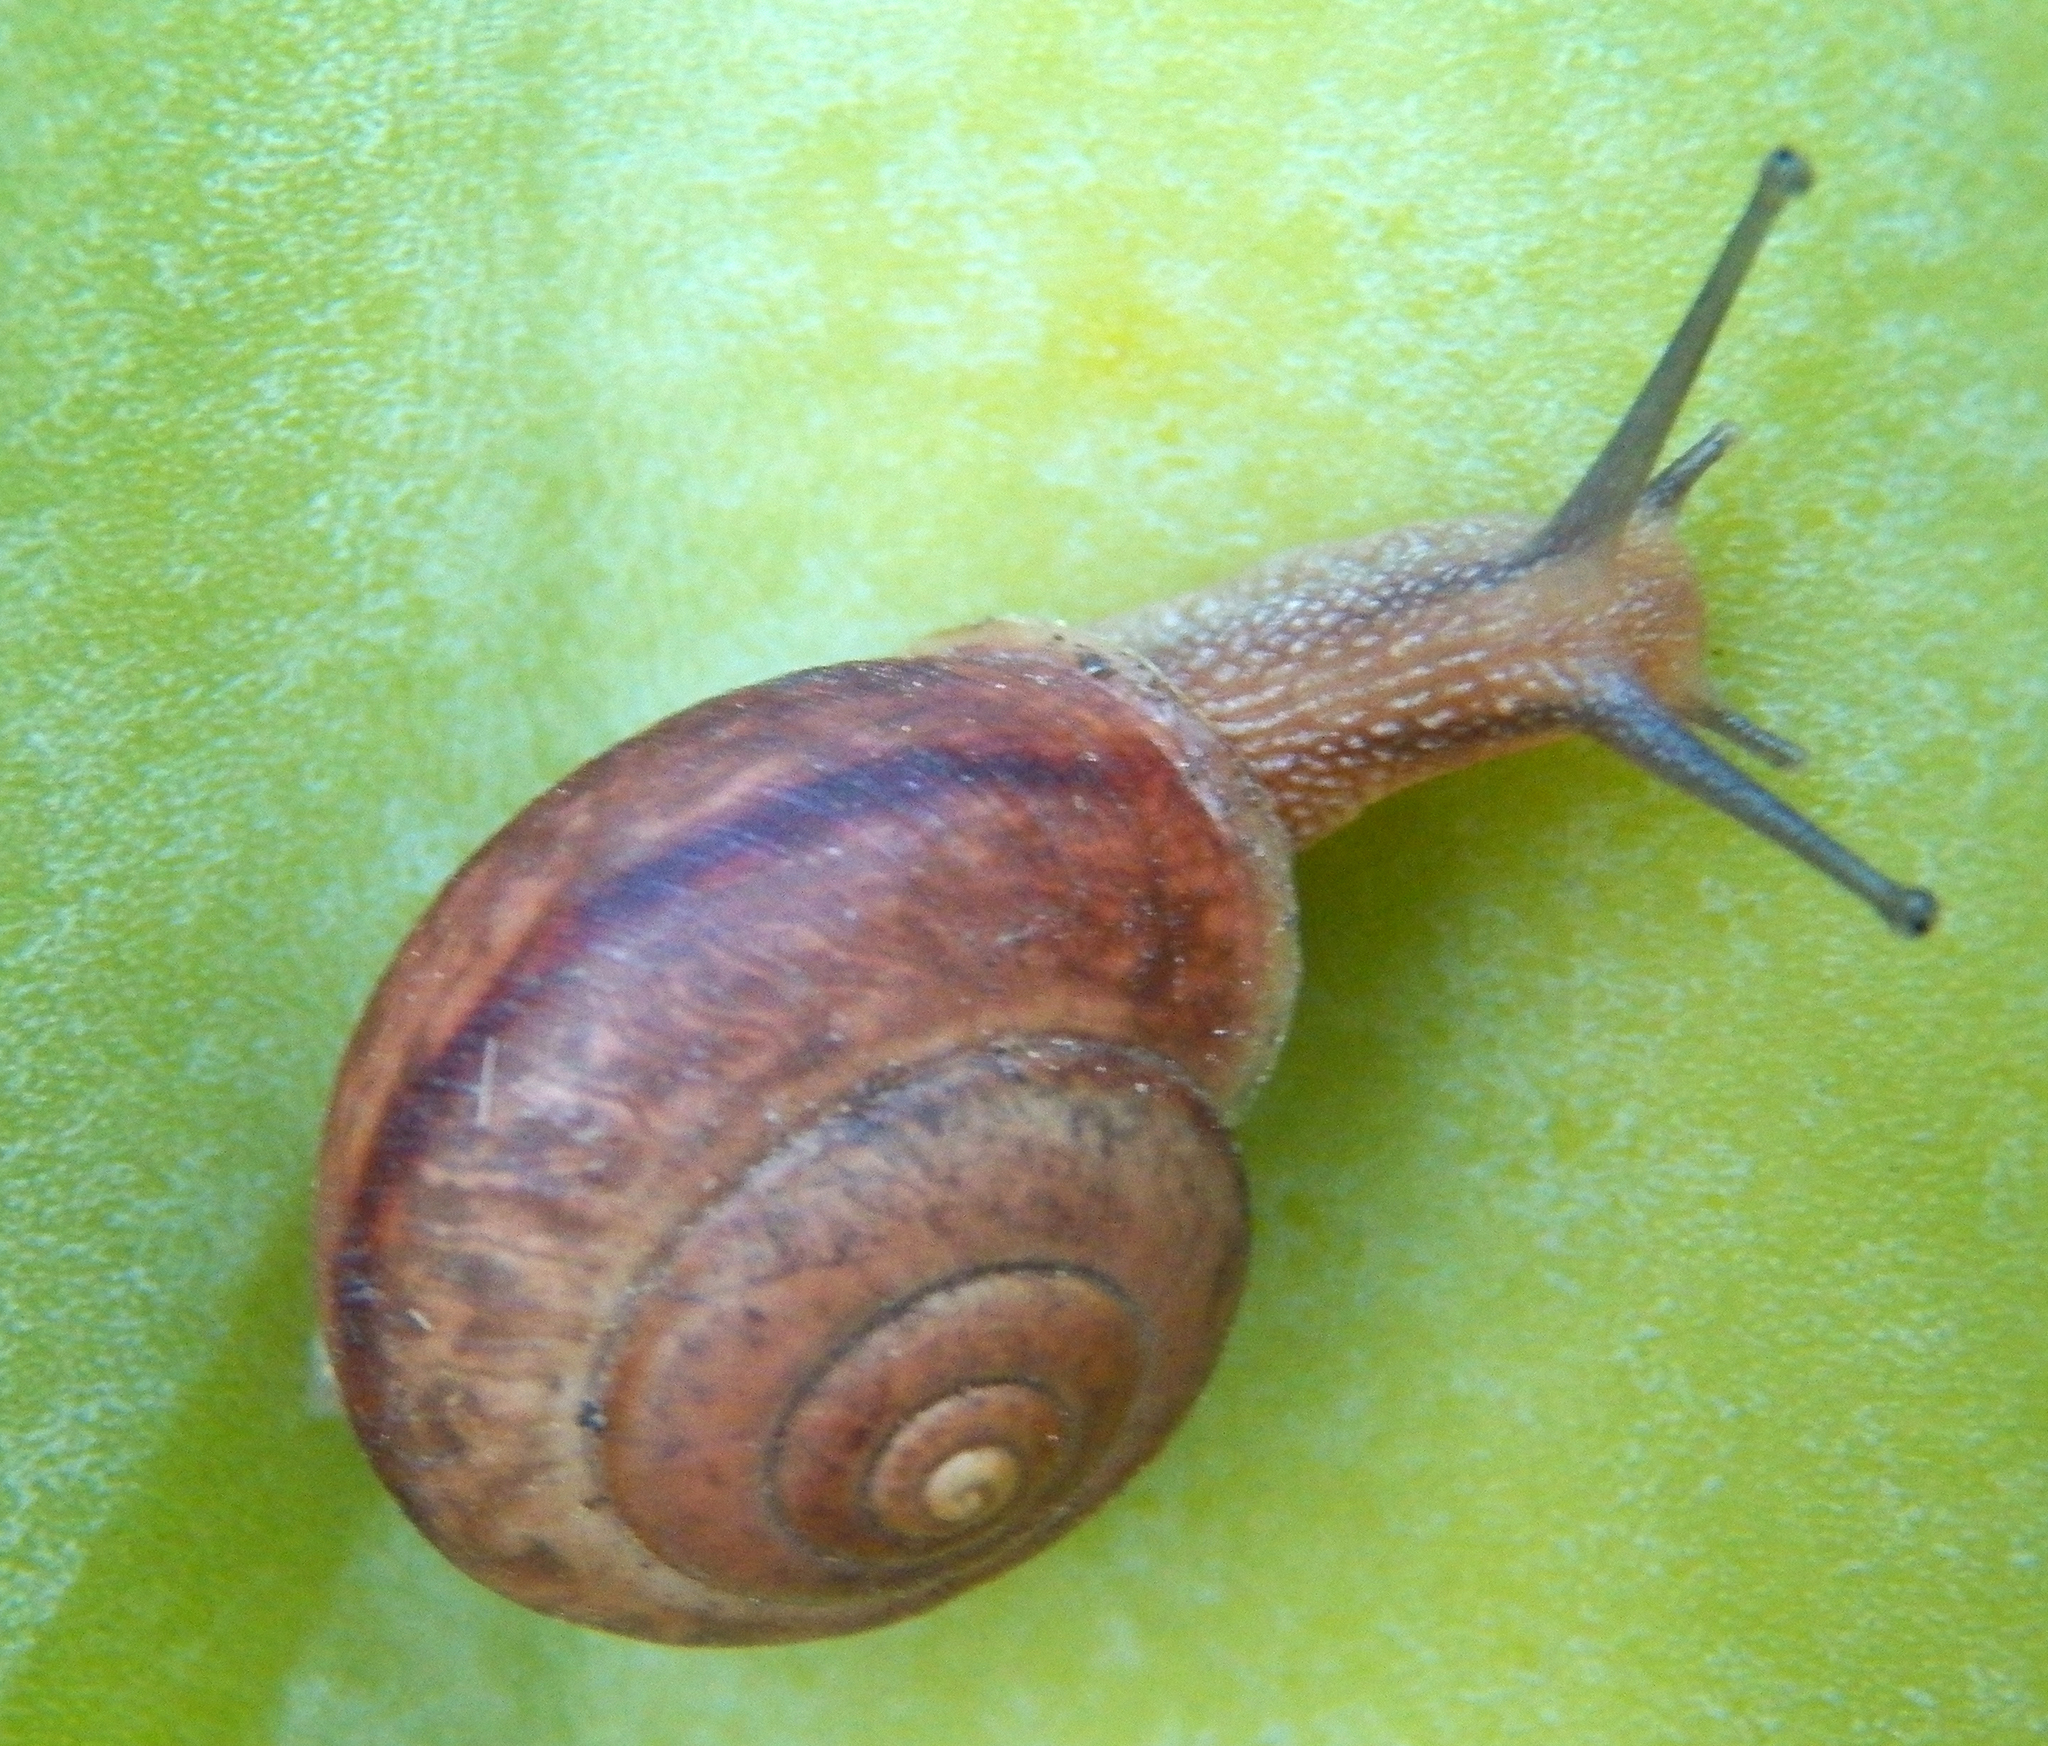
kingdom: Animalia
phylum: Mollusca
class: Gastropoda
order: Stylommatophora
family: Camaenidae
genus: Bradybaena
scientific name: Bradybaena similaris
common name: Asian trampsnail
